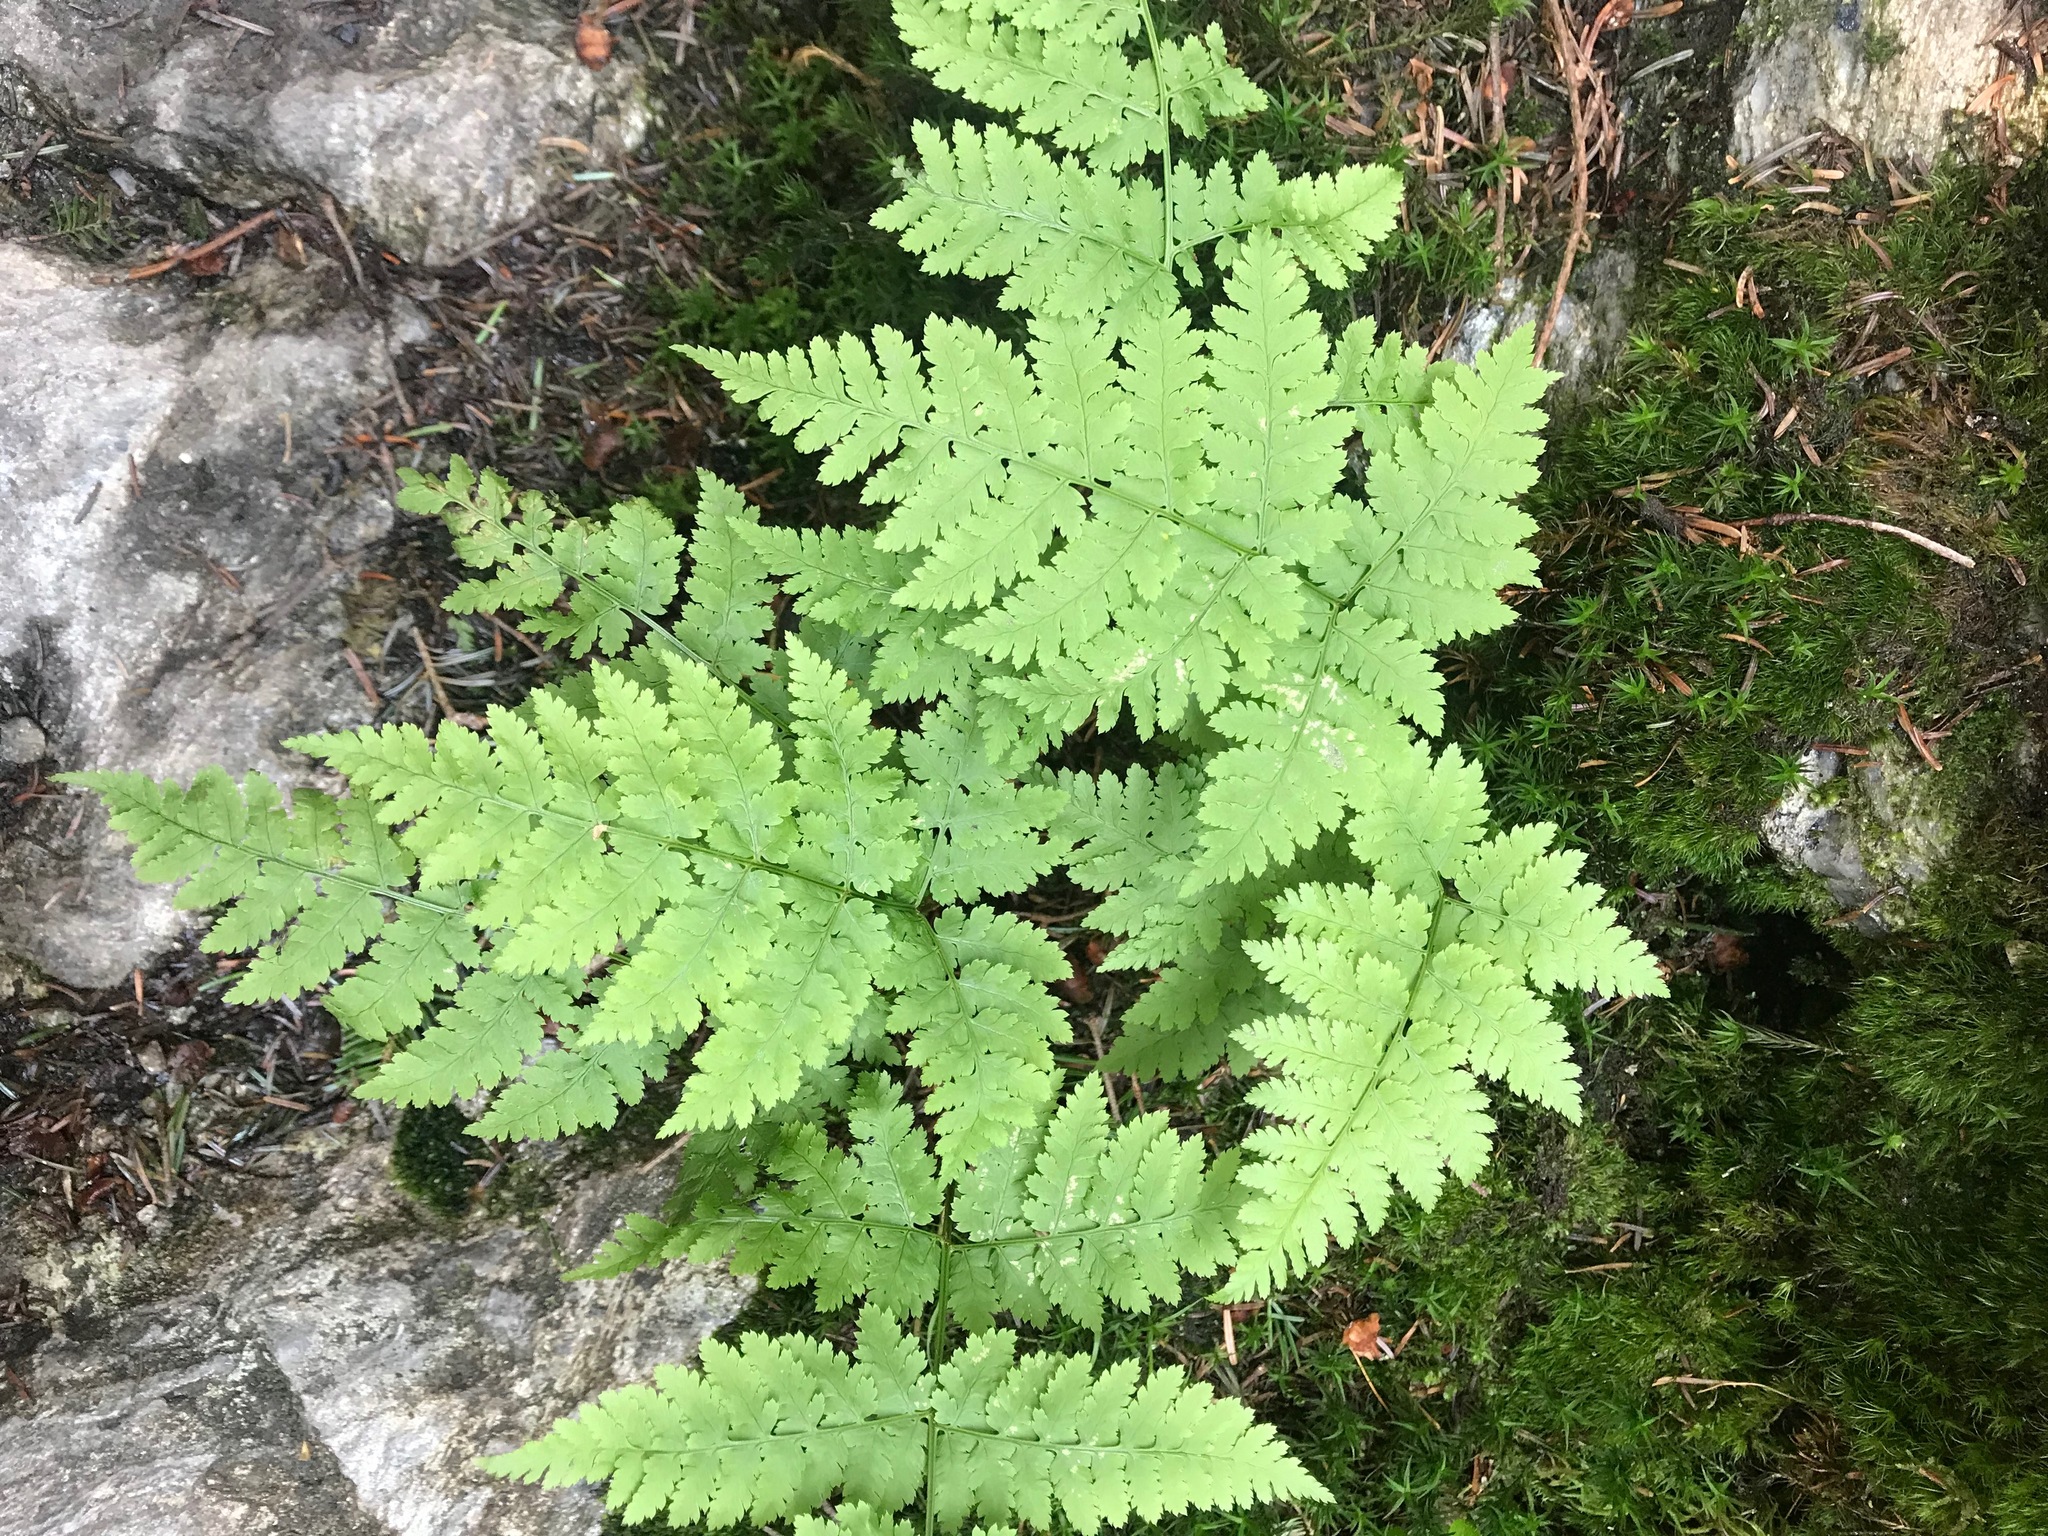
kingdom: Plantae
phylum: Tracheophyta
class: Polypodiopsida
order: Polypodiales
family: Dryopteridaceae
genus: Dryopteris
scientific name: Dryopteris campyloptera
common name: Mountain wood fern
